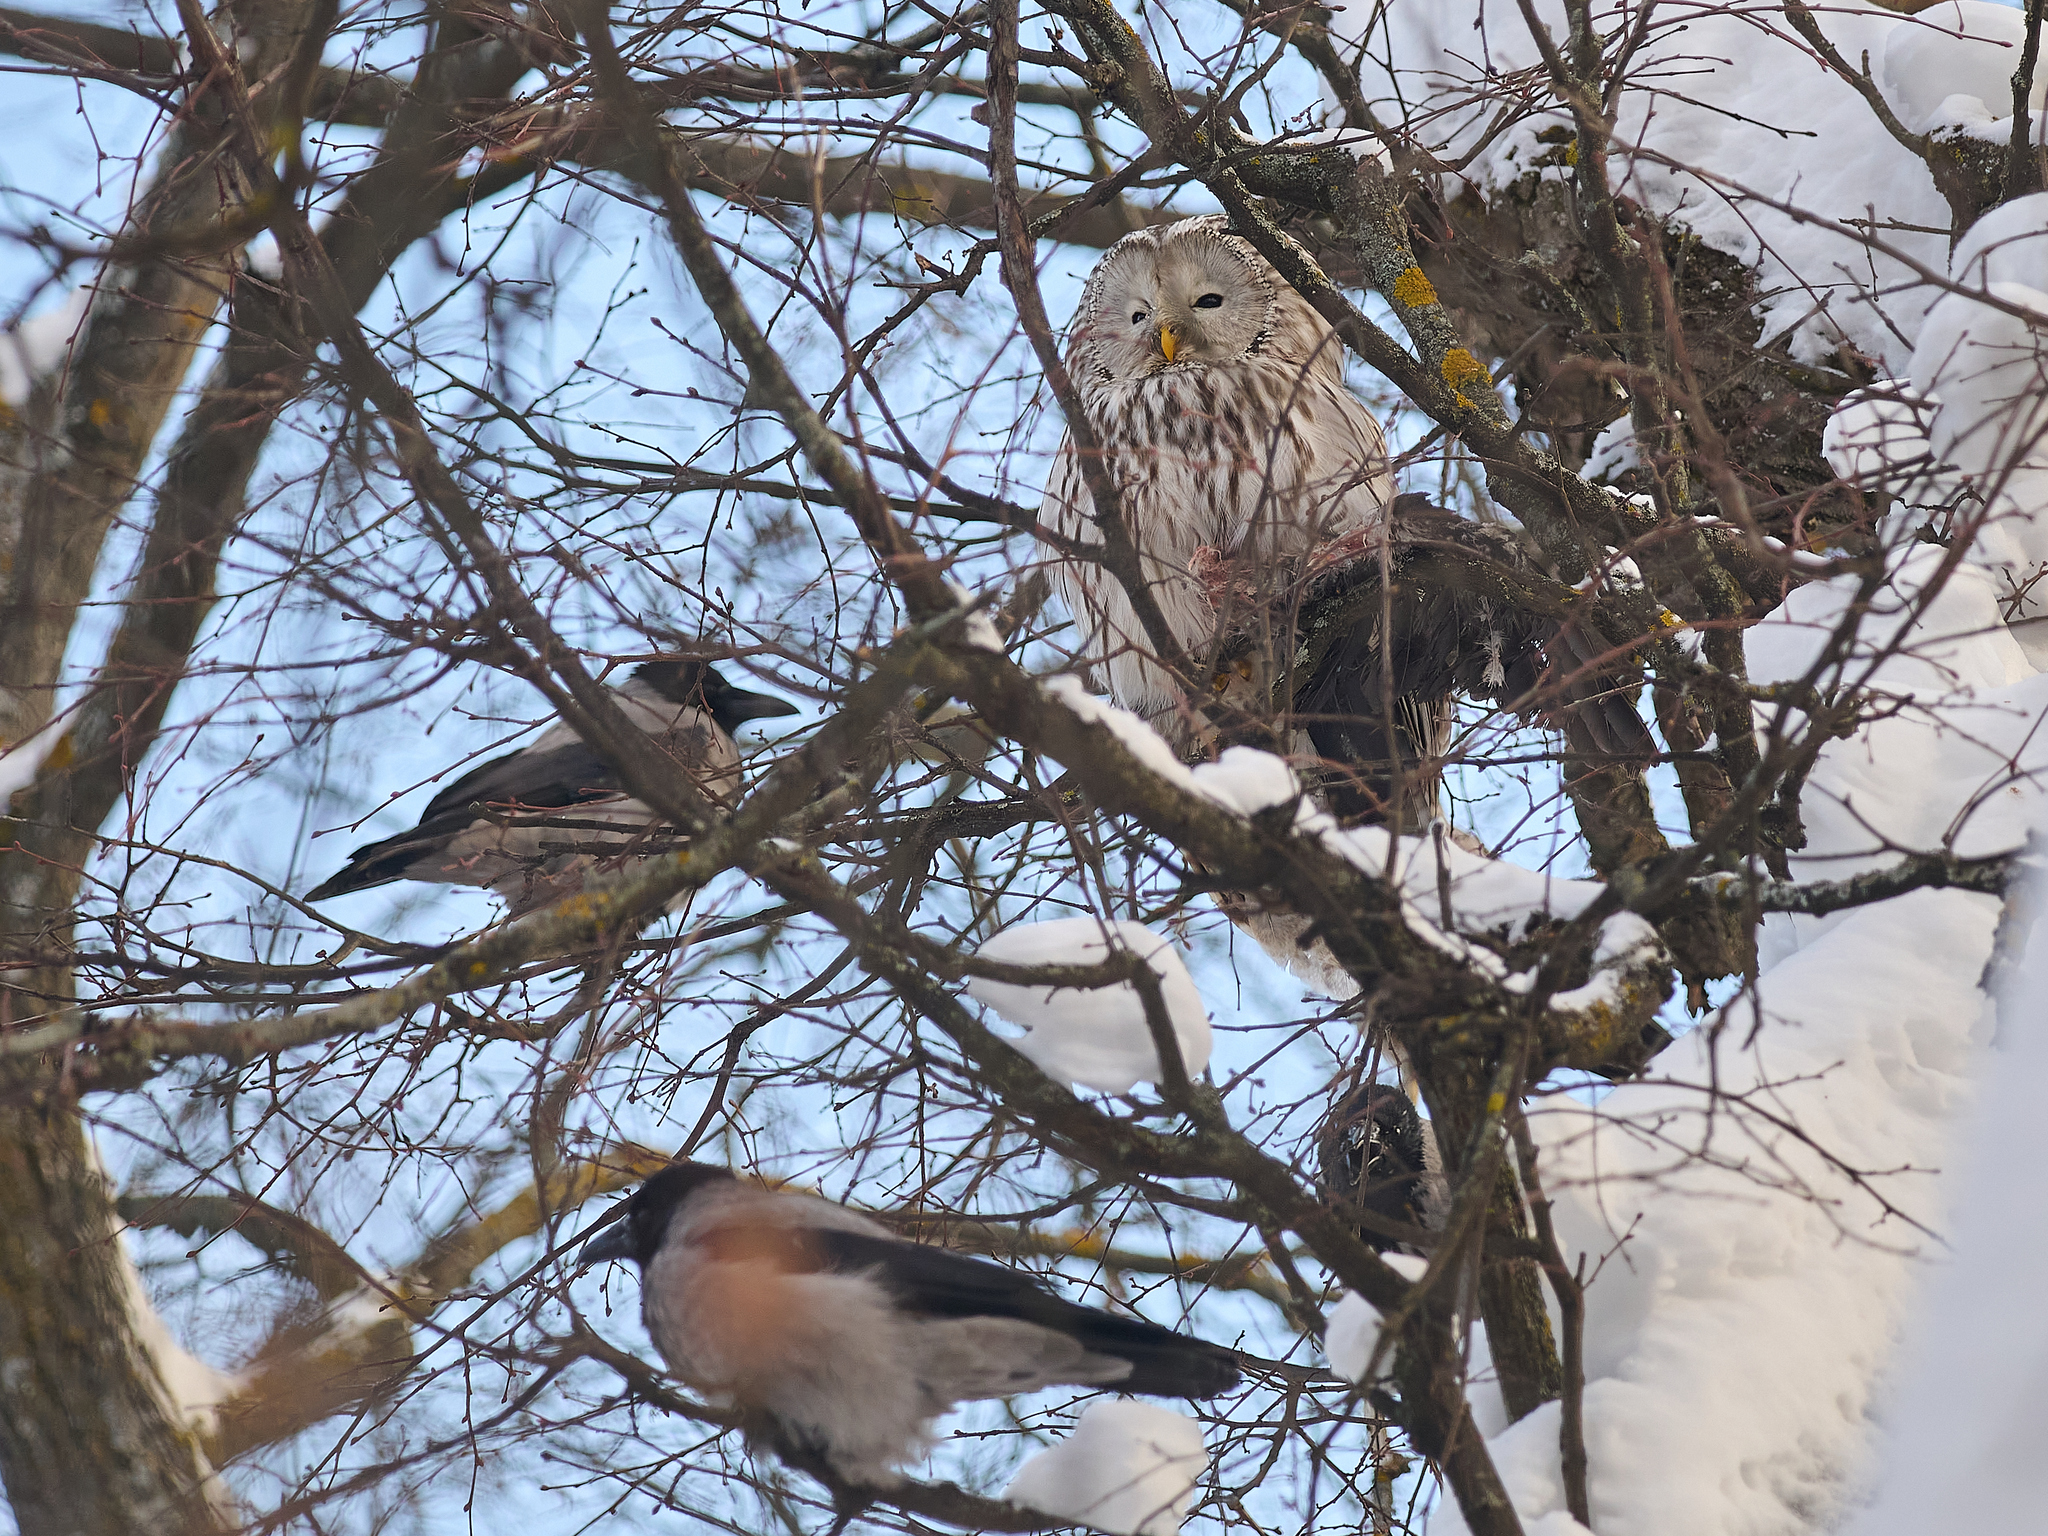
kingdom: Animalia
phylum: Chordata
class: Aves
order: Strigiformes
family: Strigidae
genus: Strix
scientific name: Strix uralensis
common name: Ural owl
